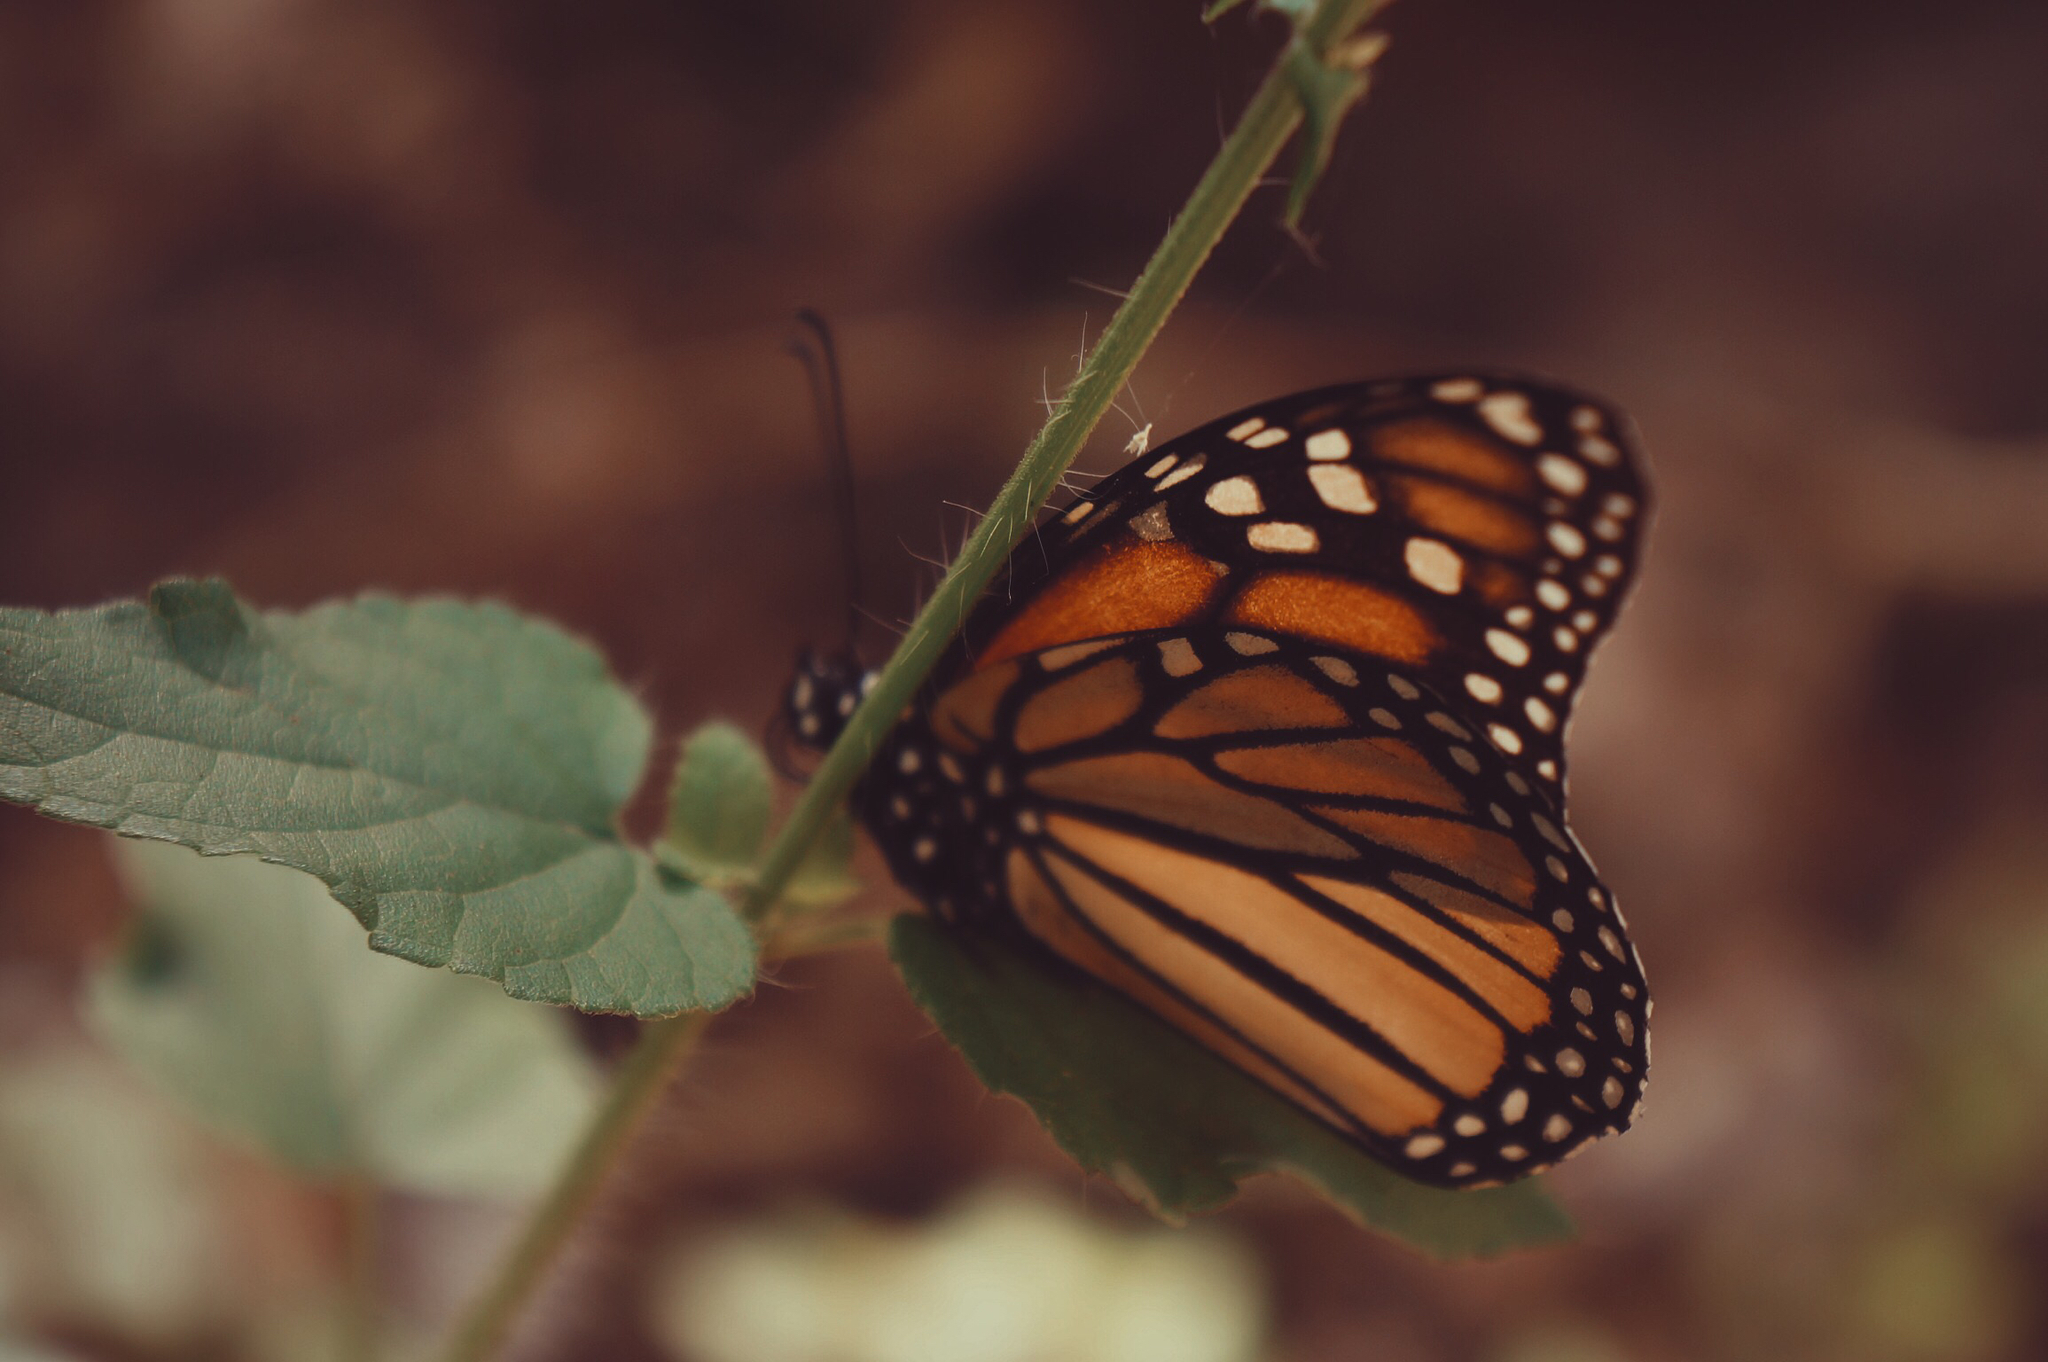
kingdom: Animalia
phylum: Arthropoda
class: Insecta
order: Lepidoptera
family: Nymphalidae
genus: Danaus
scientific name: Danaus plexippus
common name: Monarch
